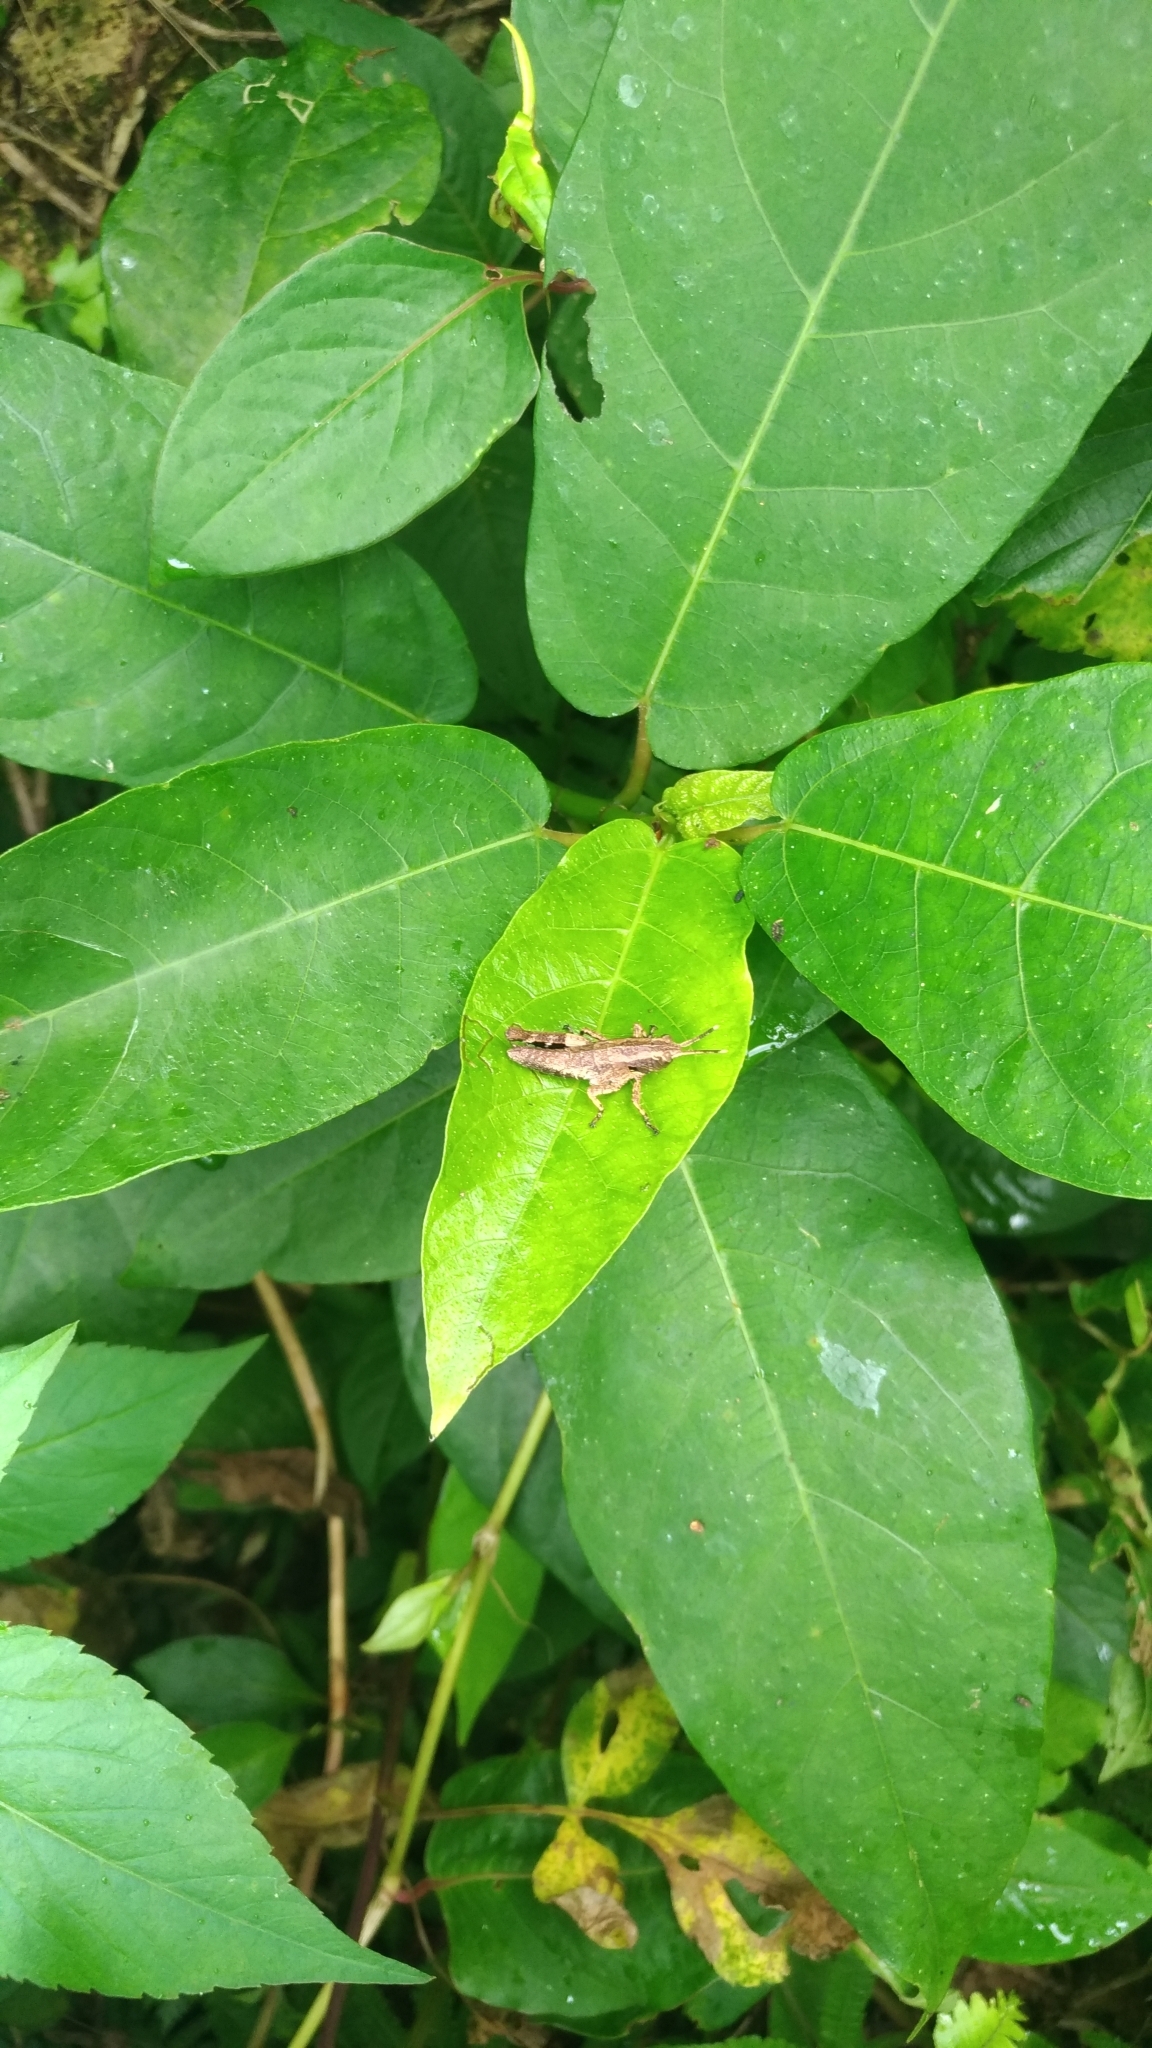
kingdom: Animalia
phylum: Arthropoda
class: Insecta
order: Orthoptera
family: Acrididae
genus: Traulia
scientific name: Traulia ornata
